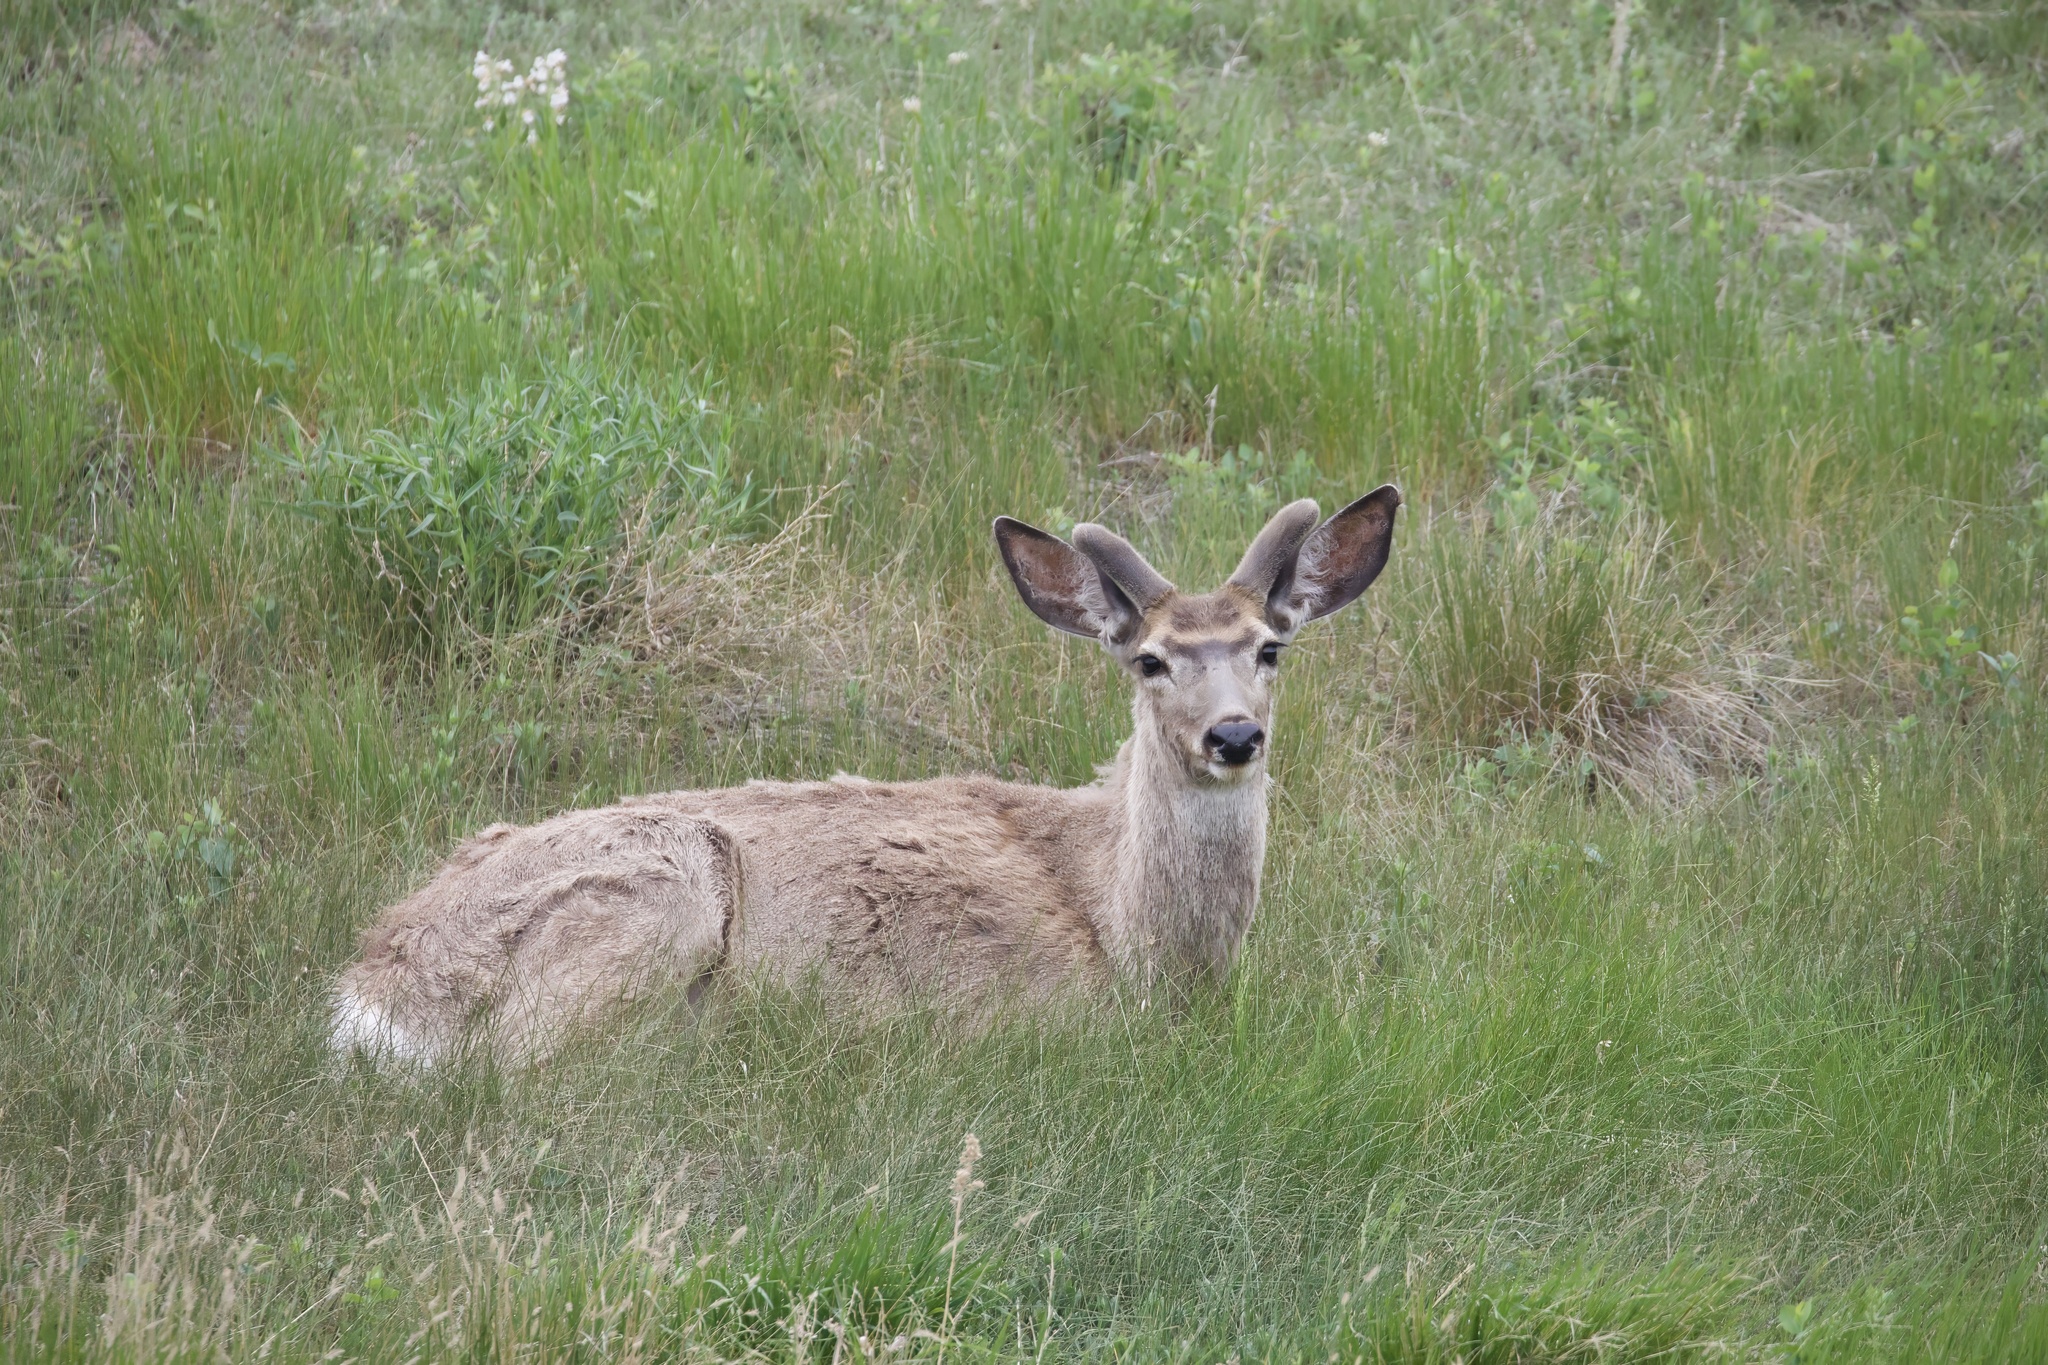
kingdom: Animalia
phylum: Chordata
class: Mammalia
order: Artiodactyla
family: Cervidae
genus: Odocoileus
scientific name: Odocoileus hemionus
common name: Mule deer
